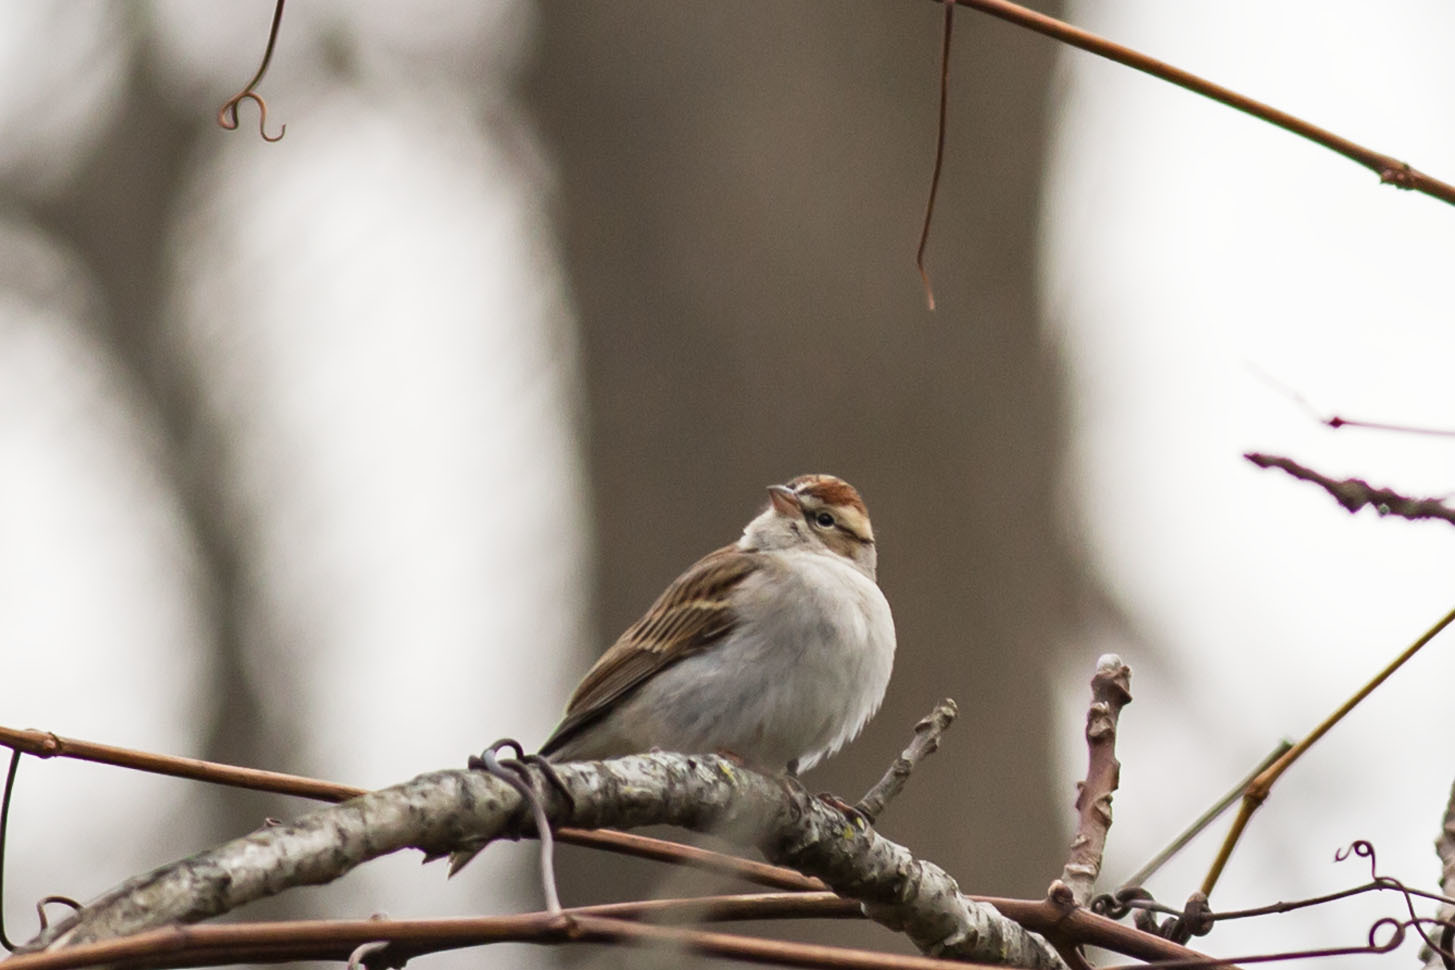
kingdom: Animalia
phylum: Chordata
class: Aves
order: Passeriformes
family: Passerellidae
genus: Spizella
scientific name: Spizella passerina
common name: Chipping sparrow
